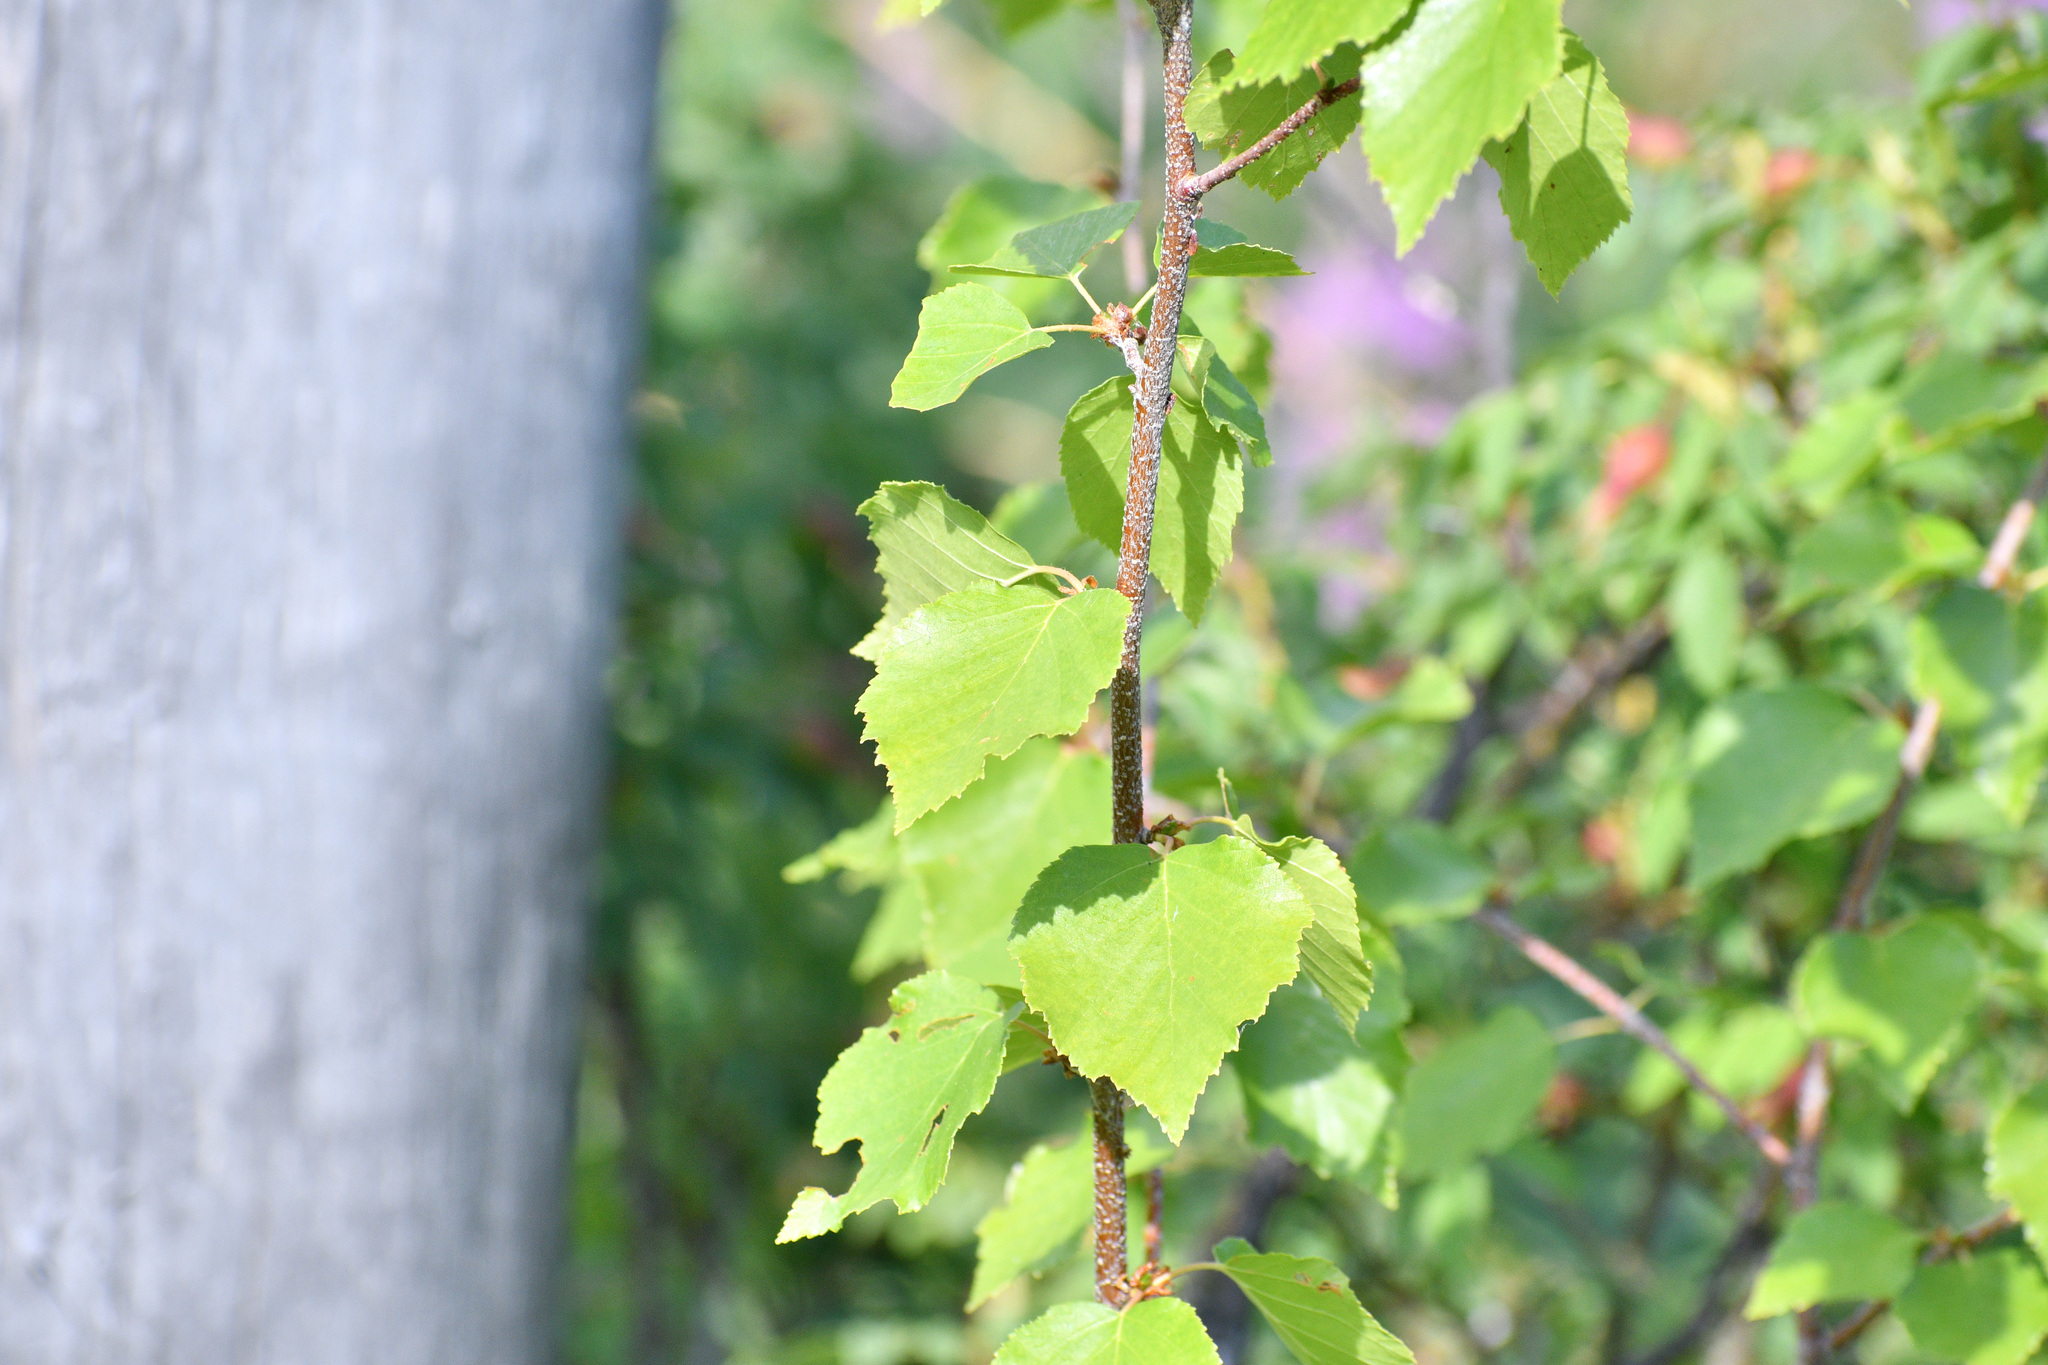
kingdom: Plantae
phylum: Tracheophyta
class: Magnoliopsida
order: Fagales
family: Betulaceae
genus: Betula
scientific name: Betula occidentalis
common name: River birch
